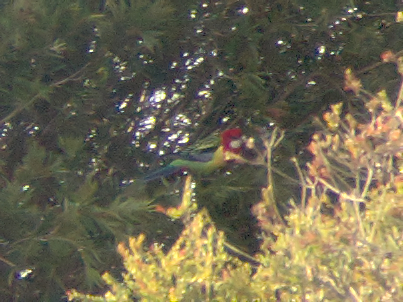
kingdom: Animalia
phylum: Chordata
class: Aves
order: Psittaciformes
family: Psittacidae
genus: Platycercus
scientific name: Platycercus eximius
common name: Eastern rosella
